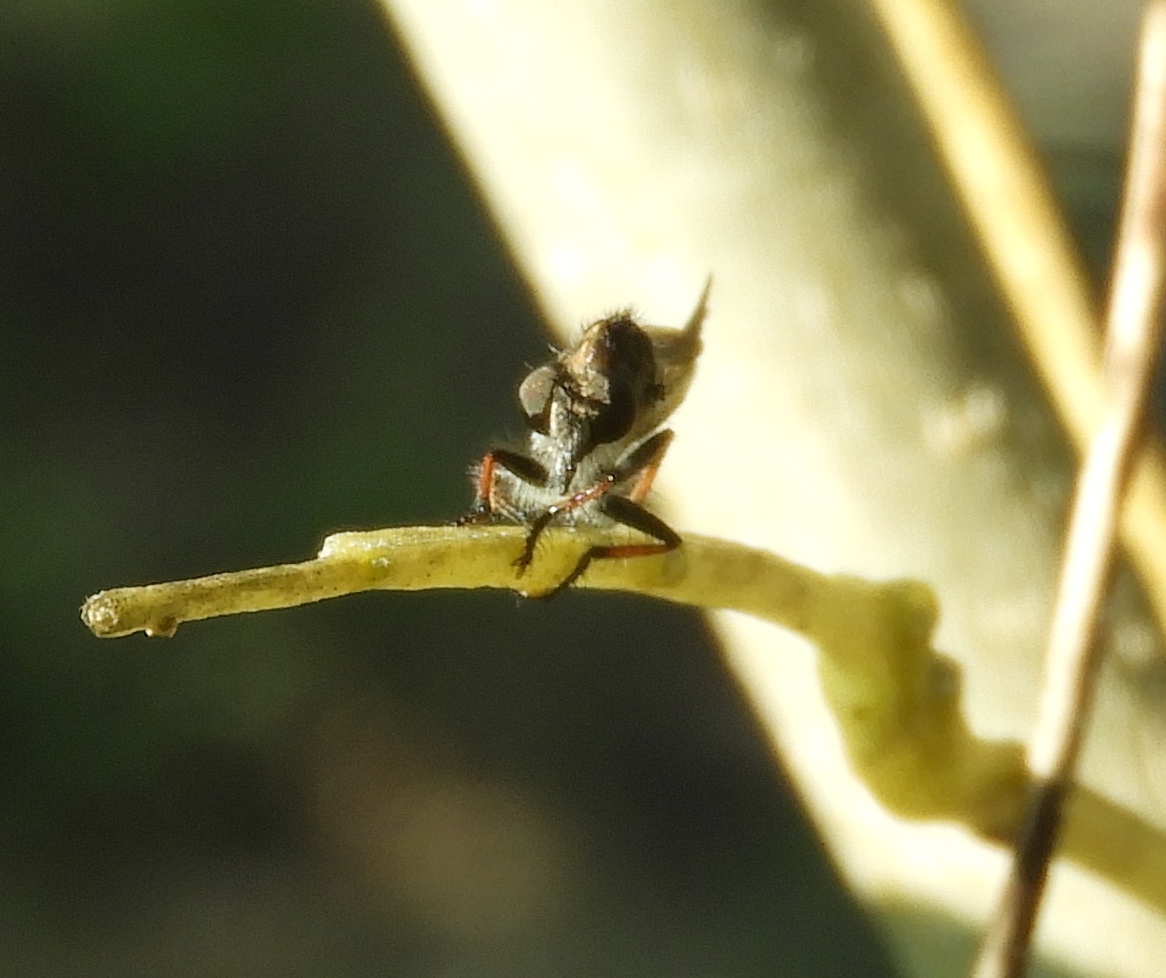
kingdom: Animalia
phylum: Arthropoda
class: Insecta
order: Diptera
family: Asilidae
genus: Efferia
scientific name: Efferia
